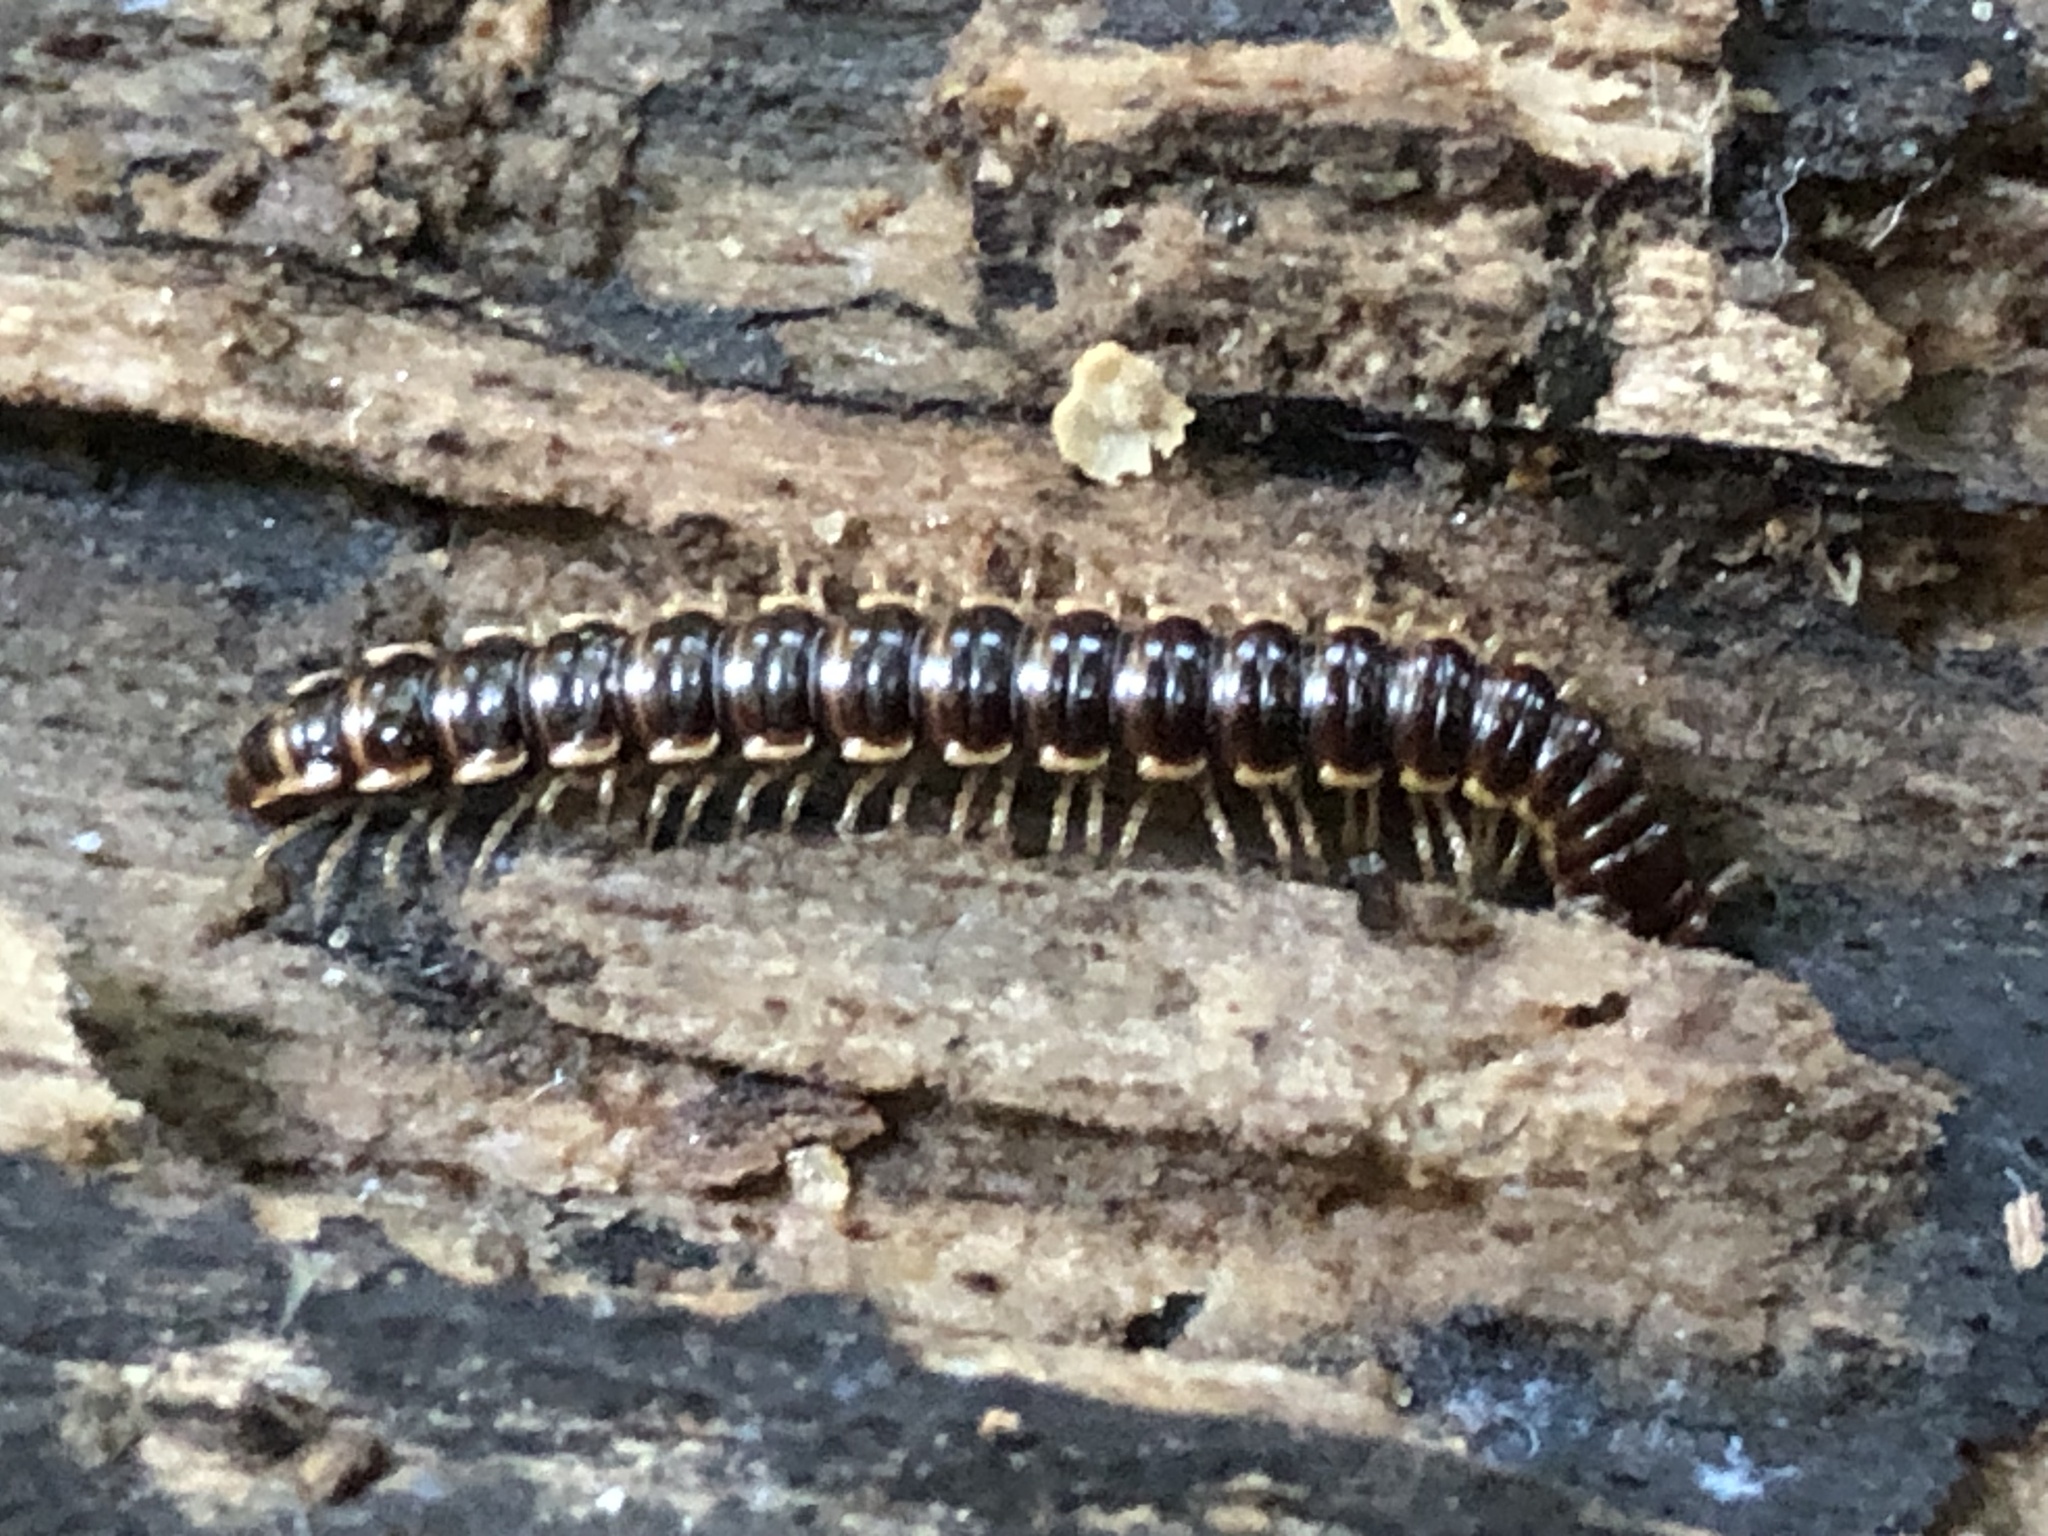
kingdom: Animalia
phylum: Arthropoda
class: Diplopoda
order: Polydesmida
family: Paradoxosomatidae
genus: Oxidus
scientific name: Oxidus gracilis
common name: Greenhouse millipede
